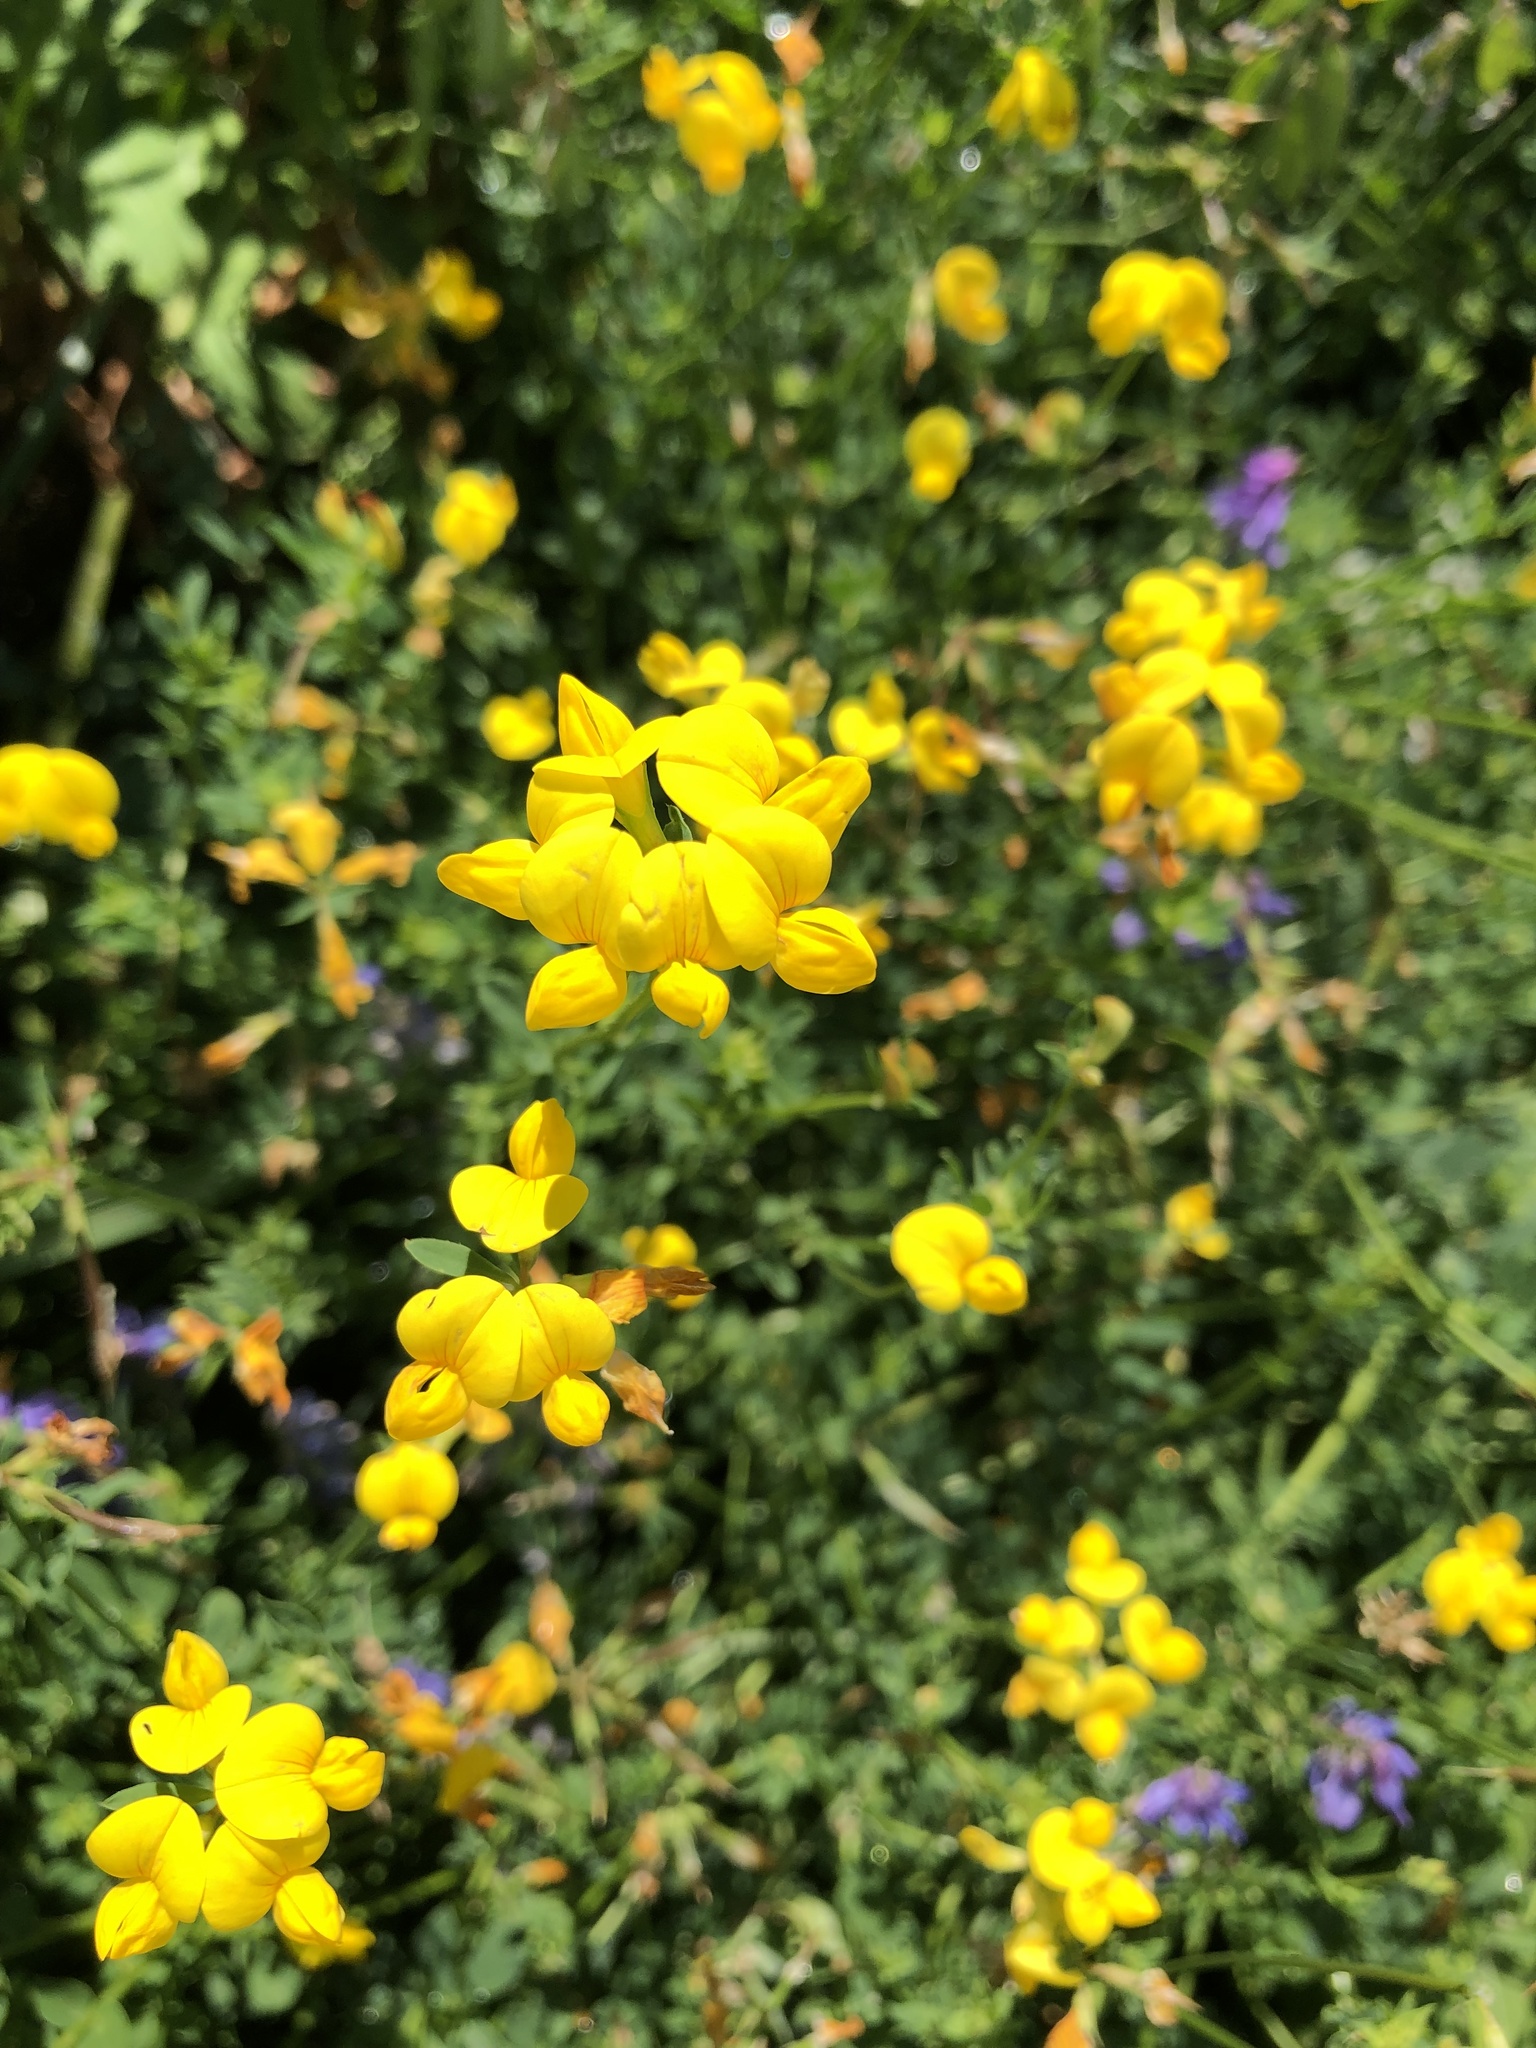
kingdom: Plantae
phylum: Tracheophyta
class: Magnoliopsida
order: Fabales
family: Fabaceae
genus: Lotus
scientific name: Lotus corniculatus
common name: Common bird's-foot-trefoil
